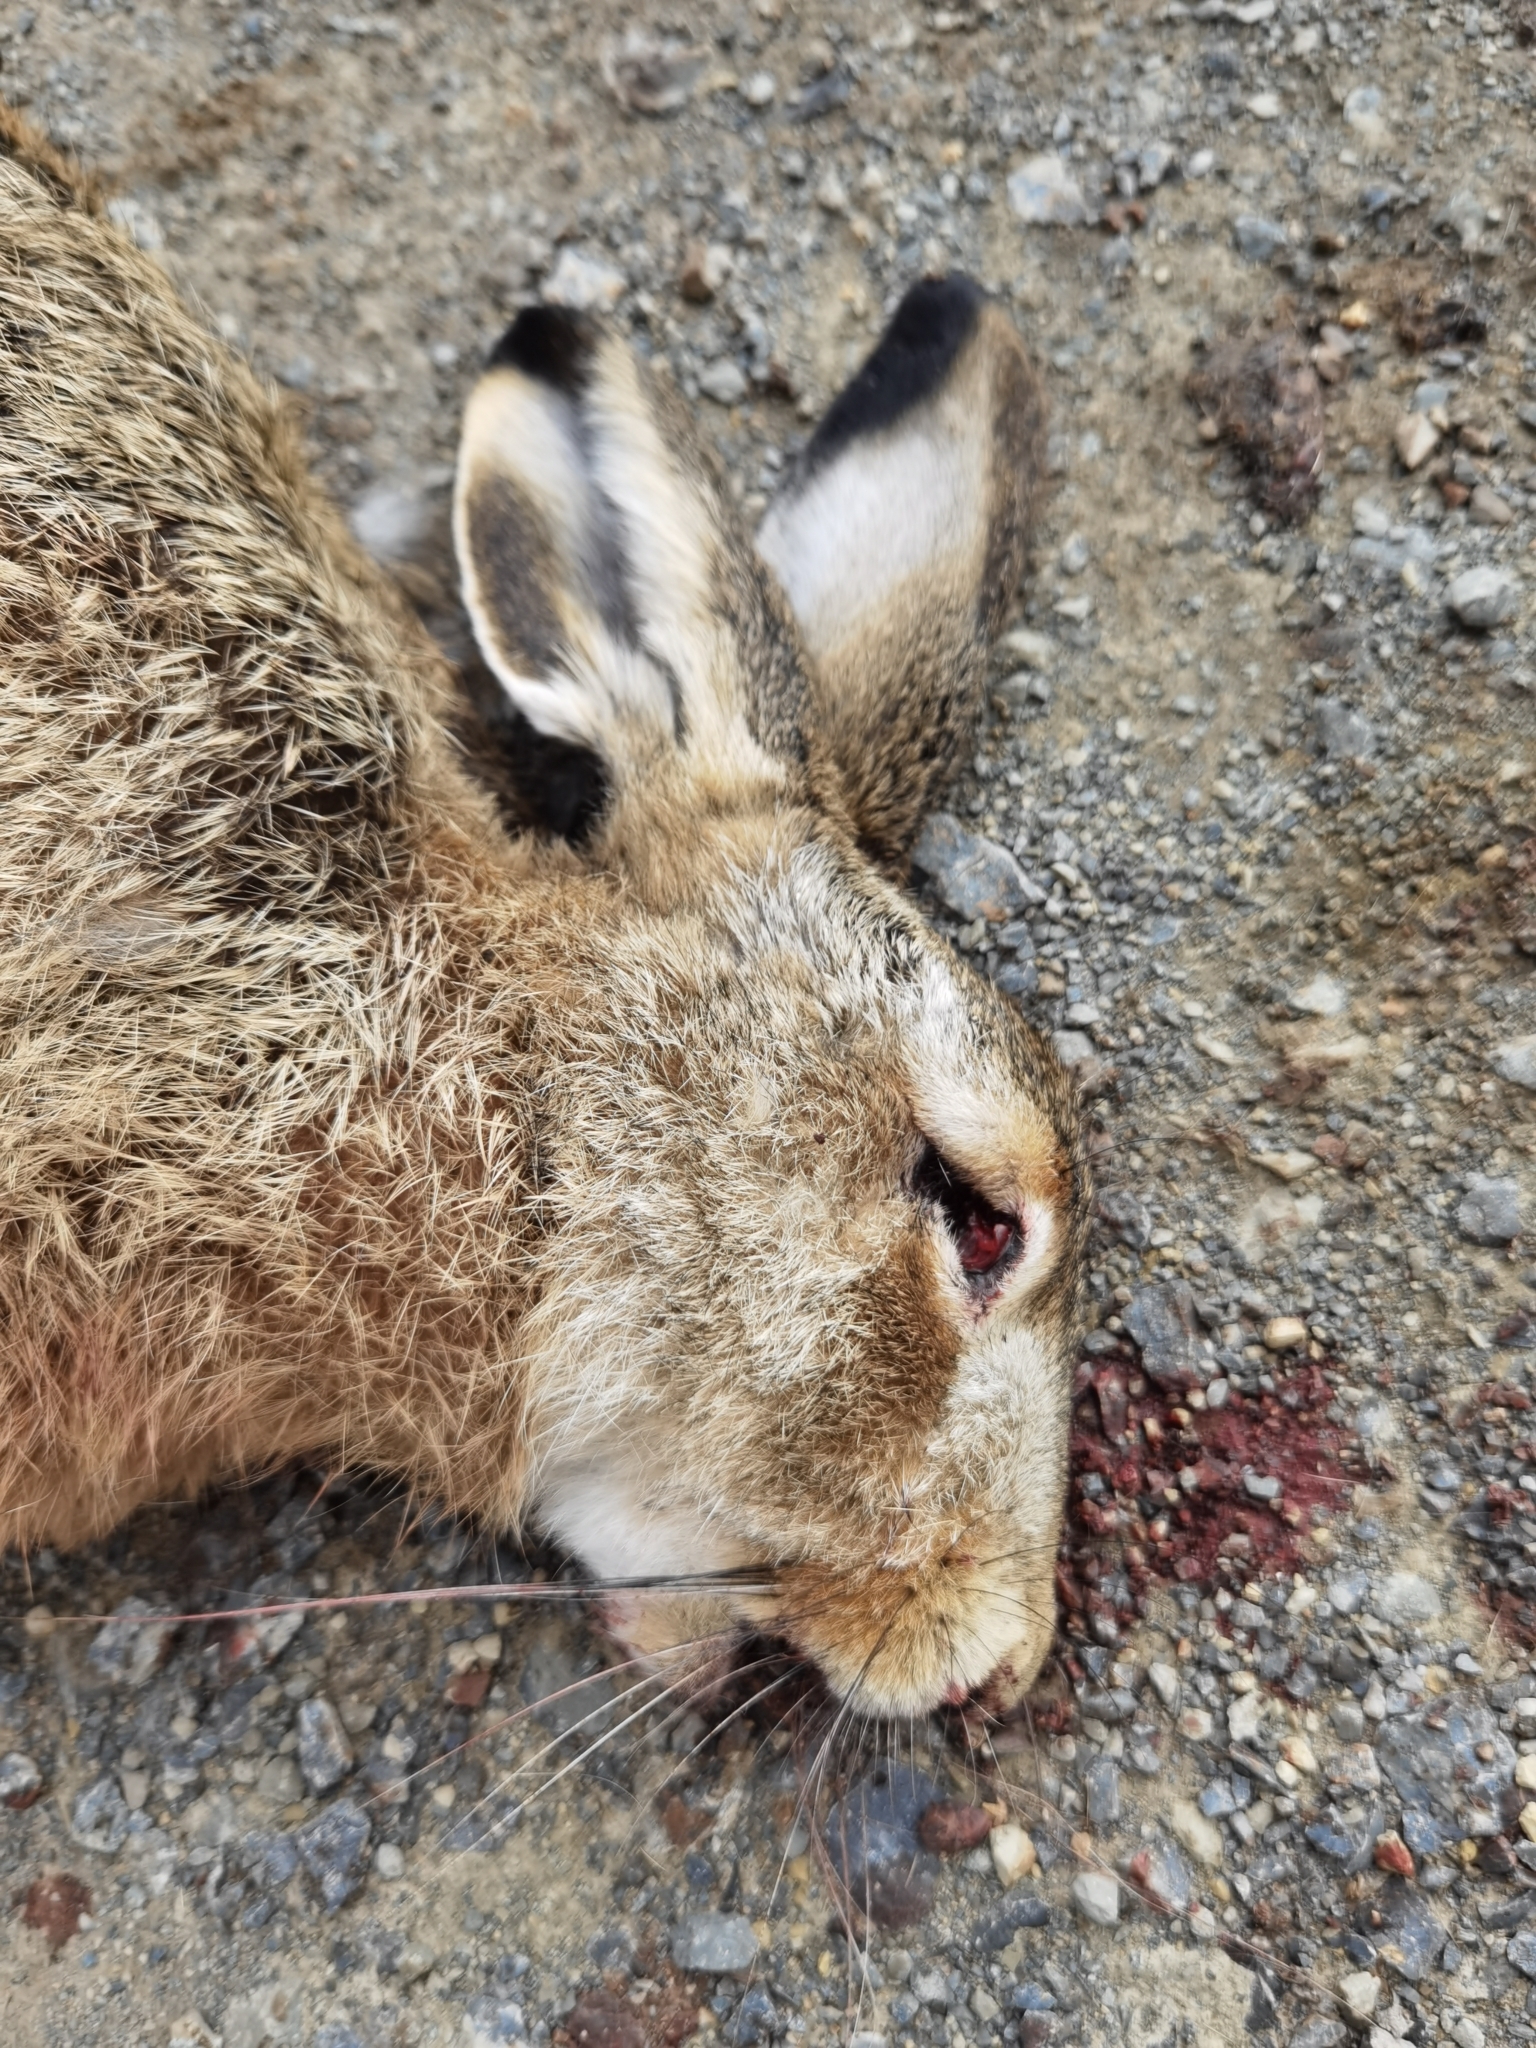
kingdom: Animalia
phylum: Chordata
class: Mammalia
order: Lagomorpha
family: Leporidae
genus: Lepus
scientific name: Lepus europaeus
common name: European hare
